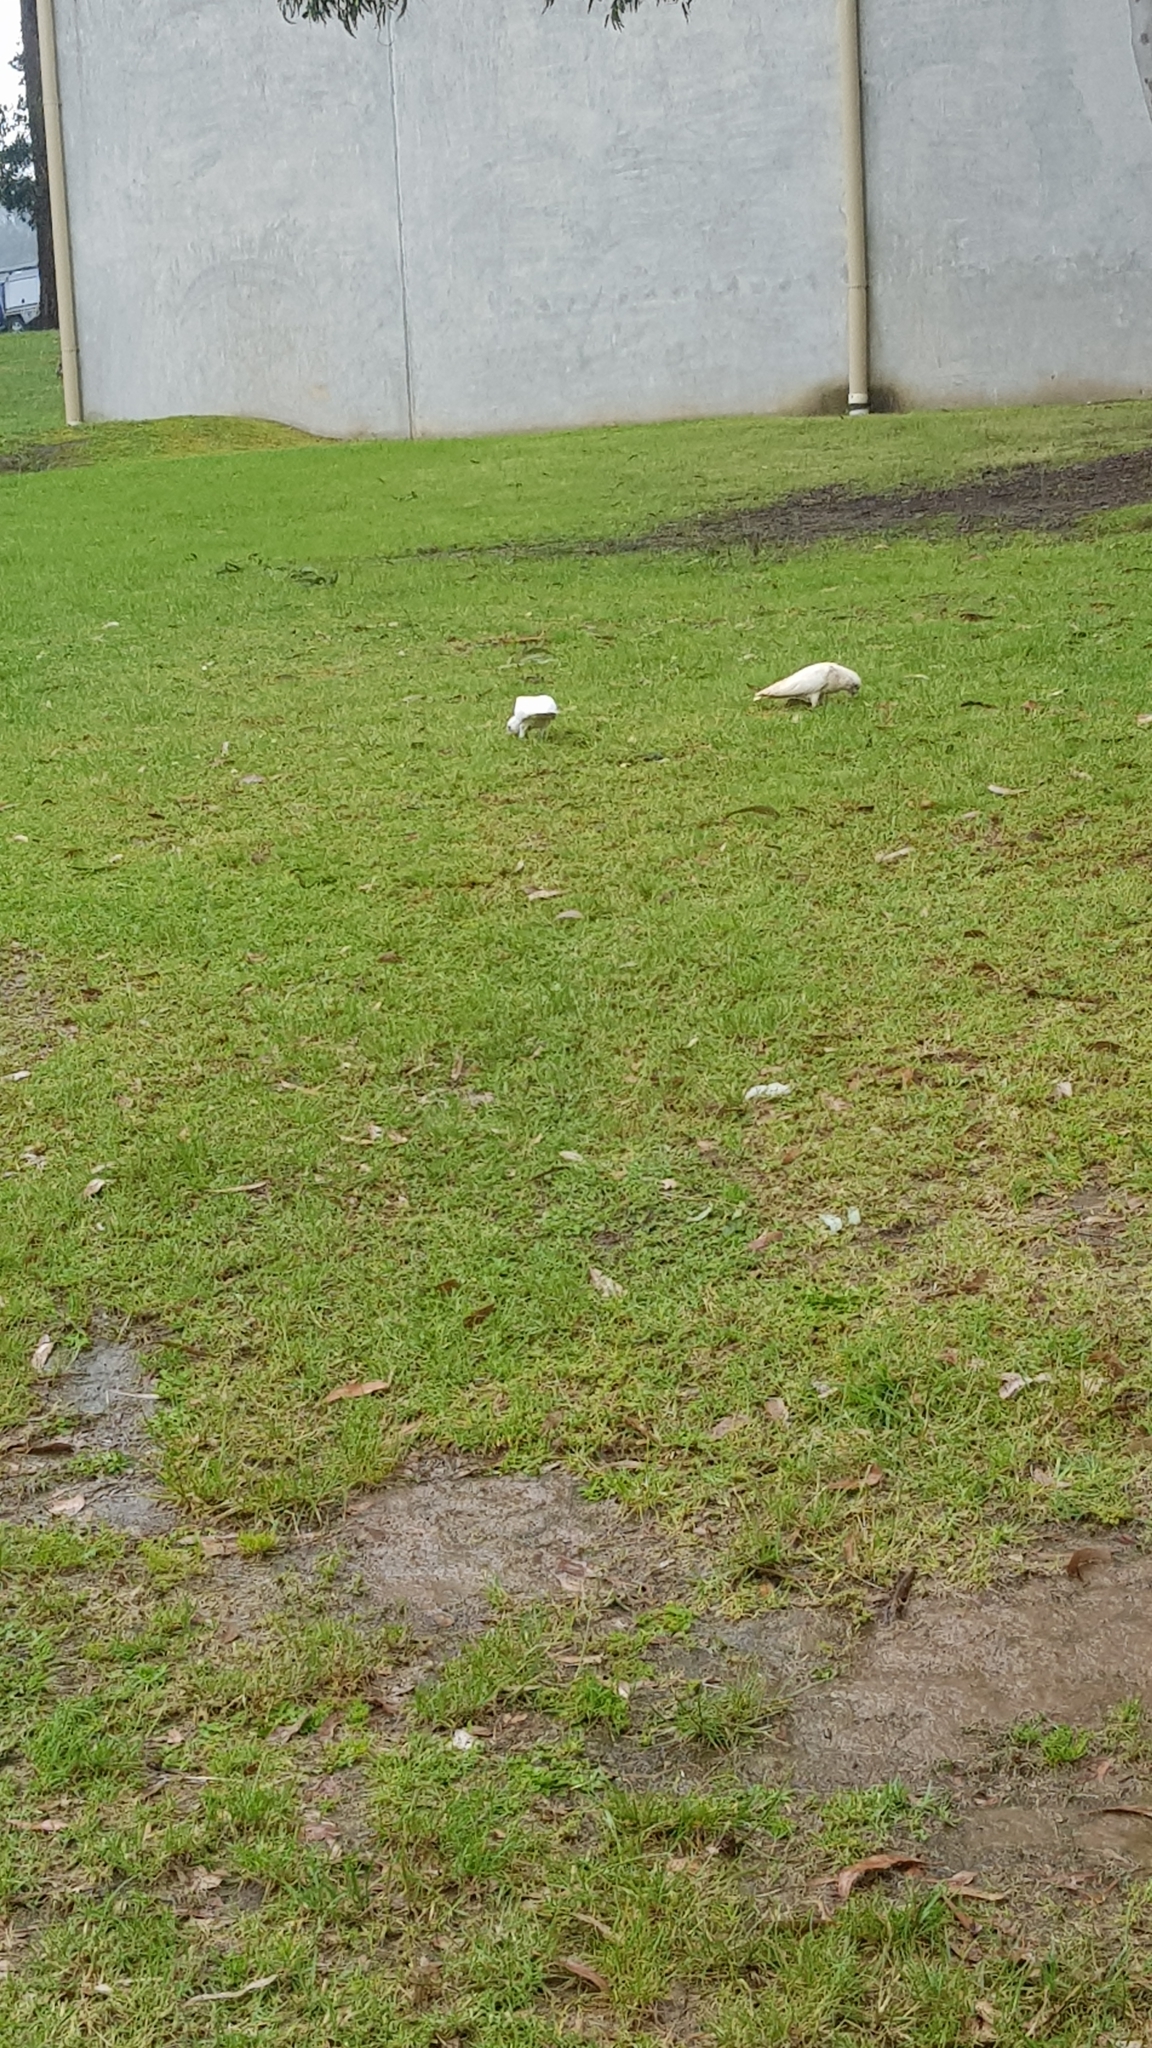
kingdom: Animalia
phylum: Chordata
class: Aves
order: Psittaciformes
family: Psittacidae
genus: Cacatua
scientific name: Cacatua sanguinea
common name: Little corella
